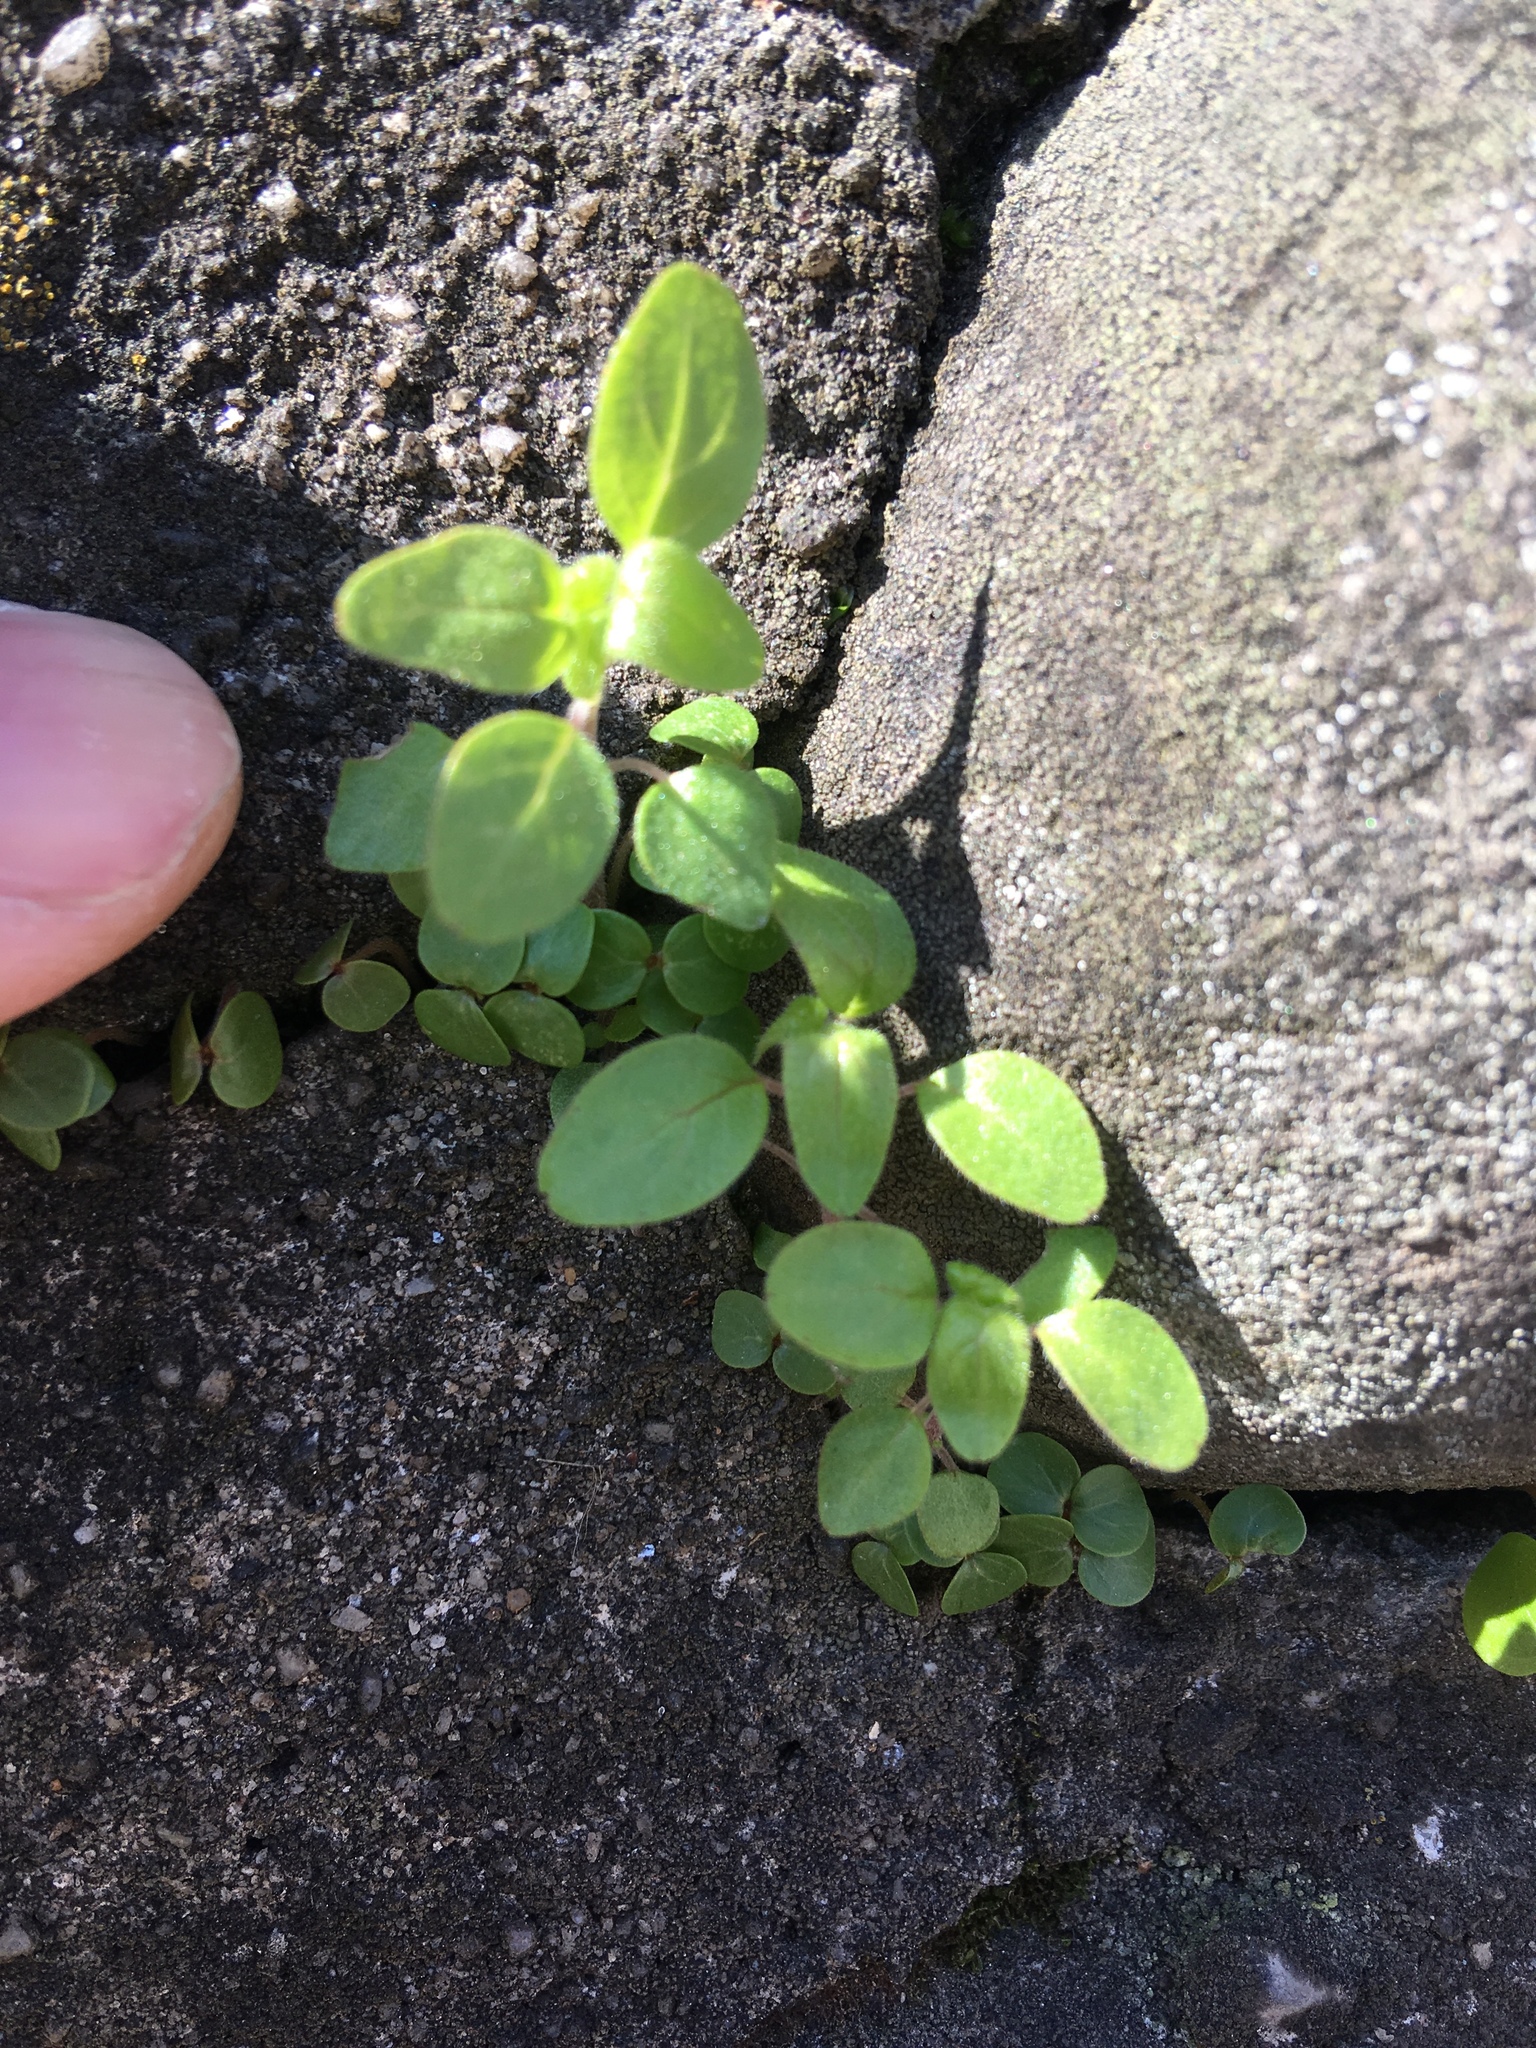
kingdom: Plantae
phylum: Tracheophyta
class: Magnoliopsida
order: Rosales
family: Urticaceae
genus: Parietaria
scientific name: Parietaria pensylvanica
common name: Pennsylvania pellitory
